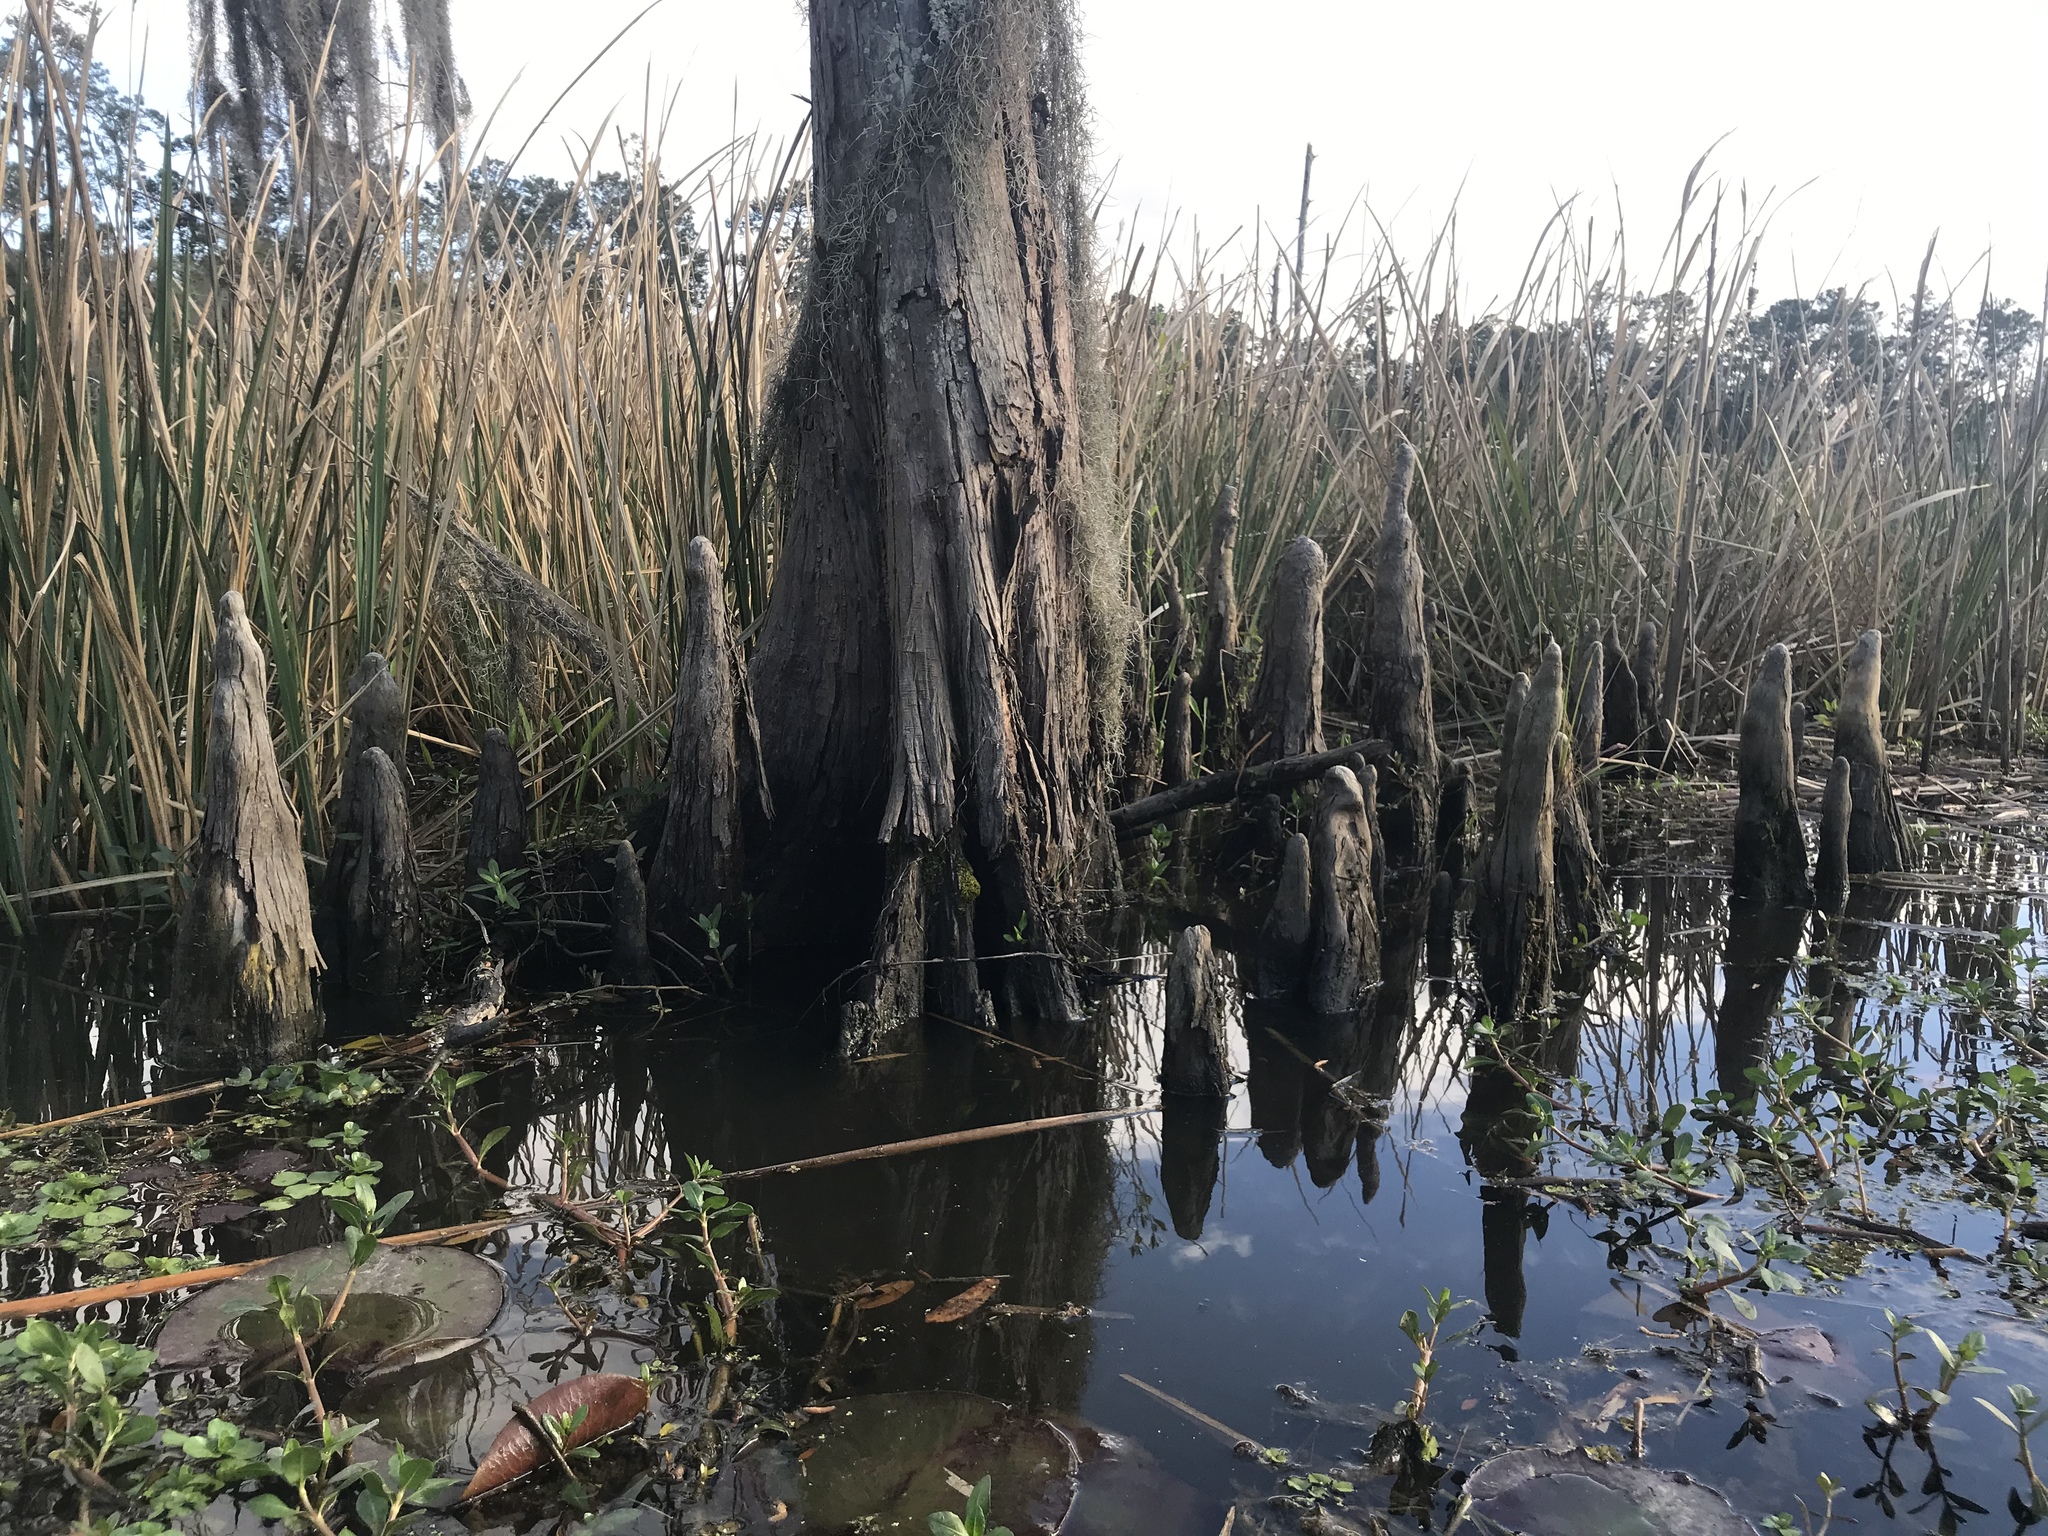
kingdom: Plantae
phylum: Tracheophyta
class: Pinopsida
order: Pinales
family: Cupressaceae
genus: Taxodium
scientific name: Taxodium distichum
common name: Bald cypress
